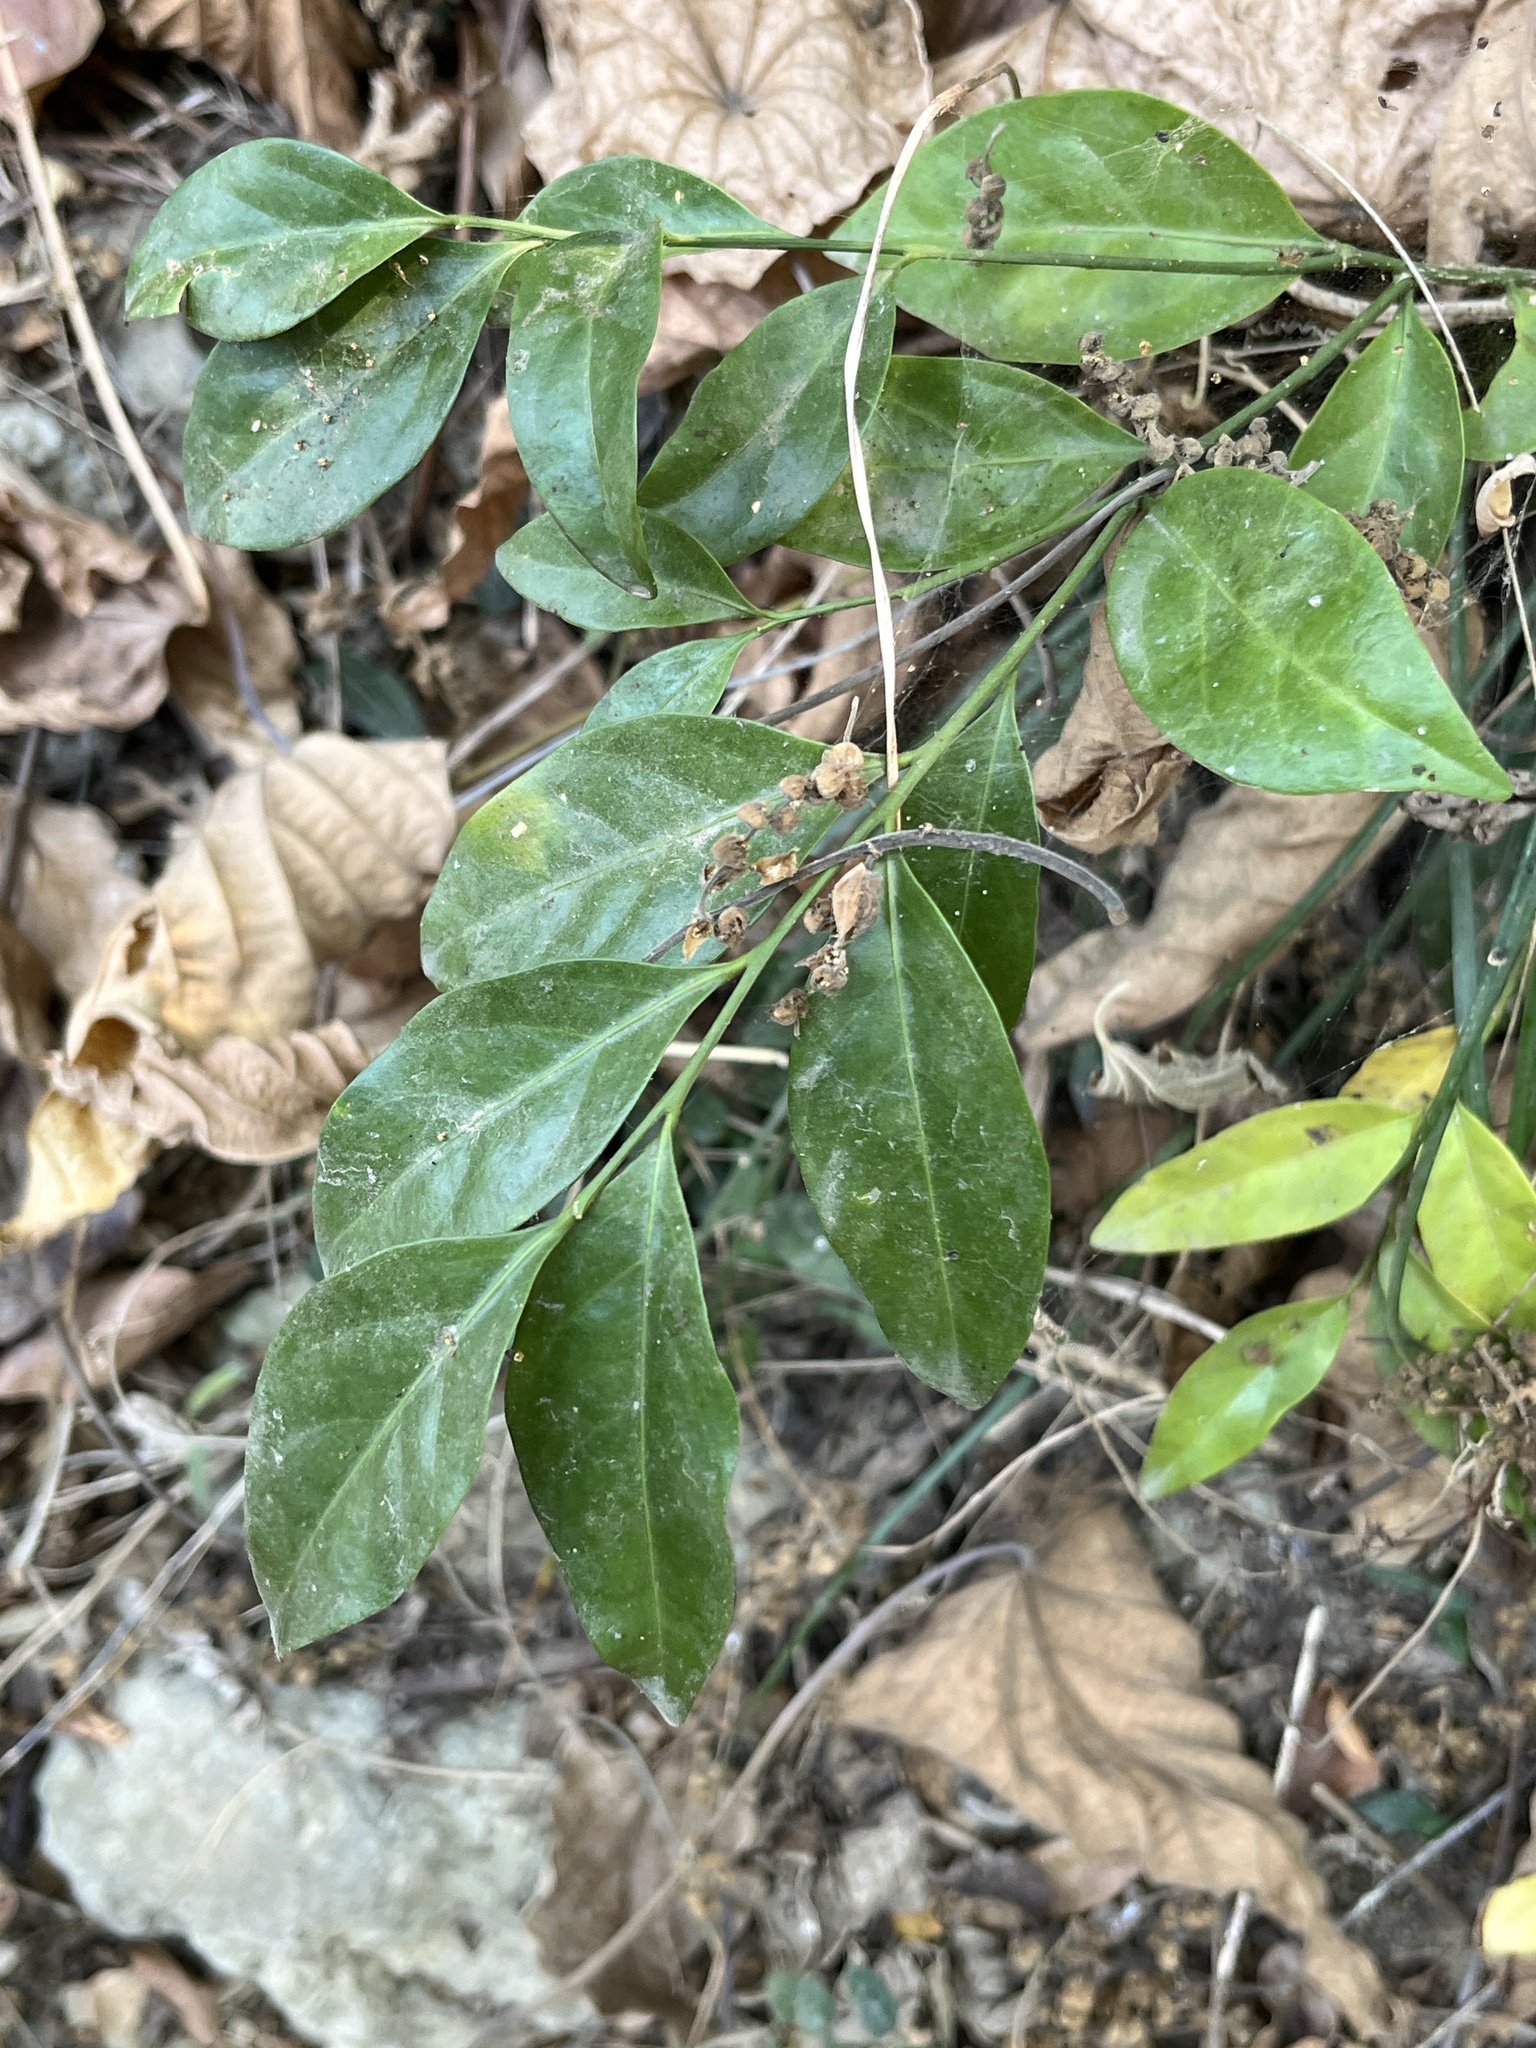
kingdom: Plantae
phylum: Tracheophyta
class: Magnoliopsida
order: Santalales
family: Opiliaceae
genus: Champereia
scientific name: Champereia manillana
